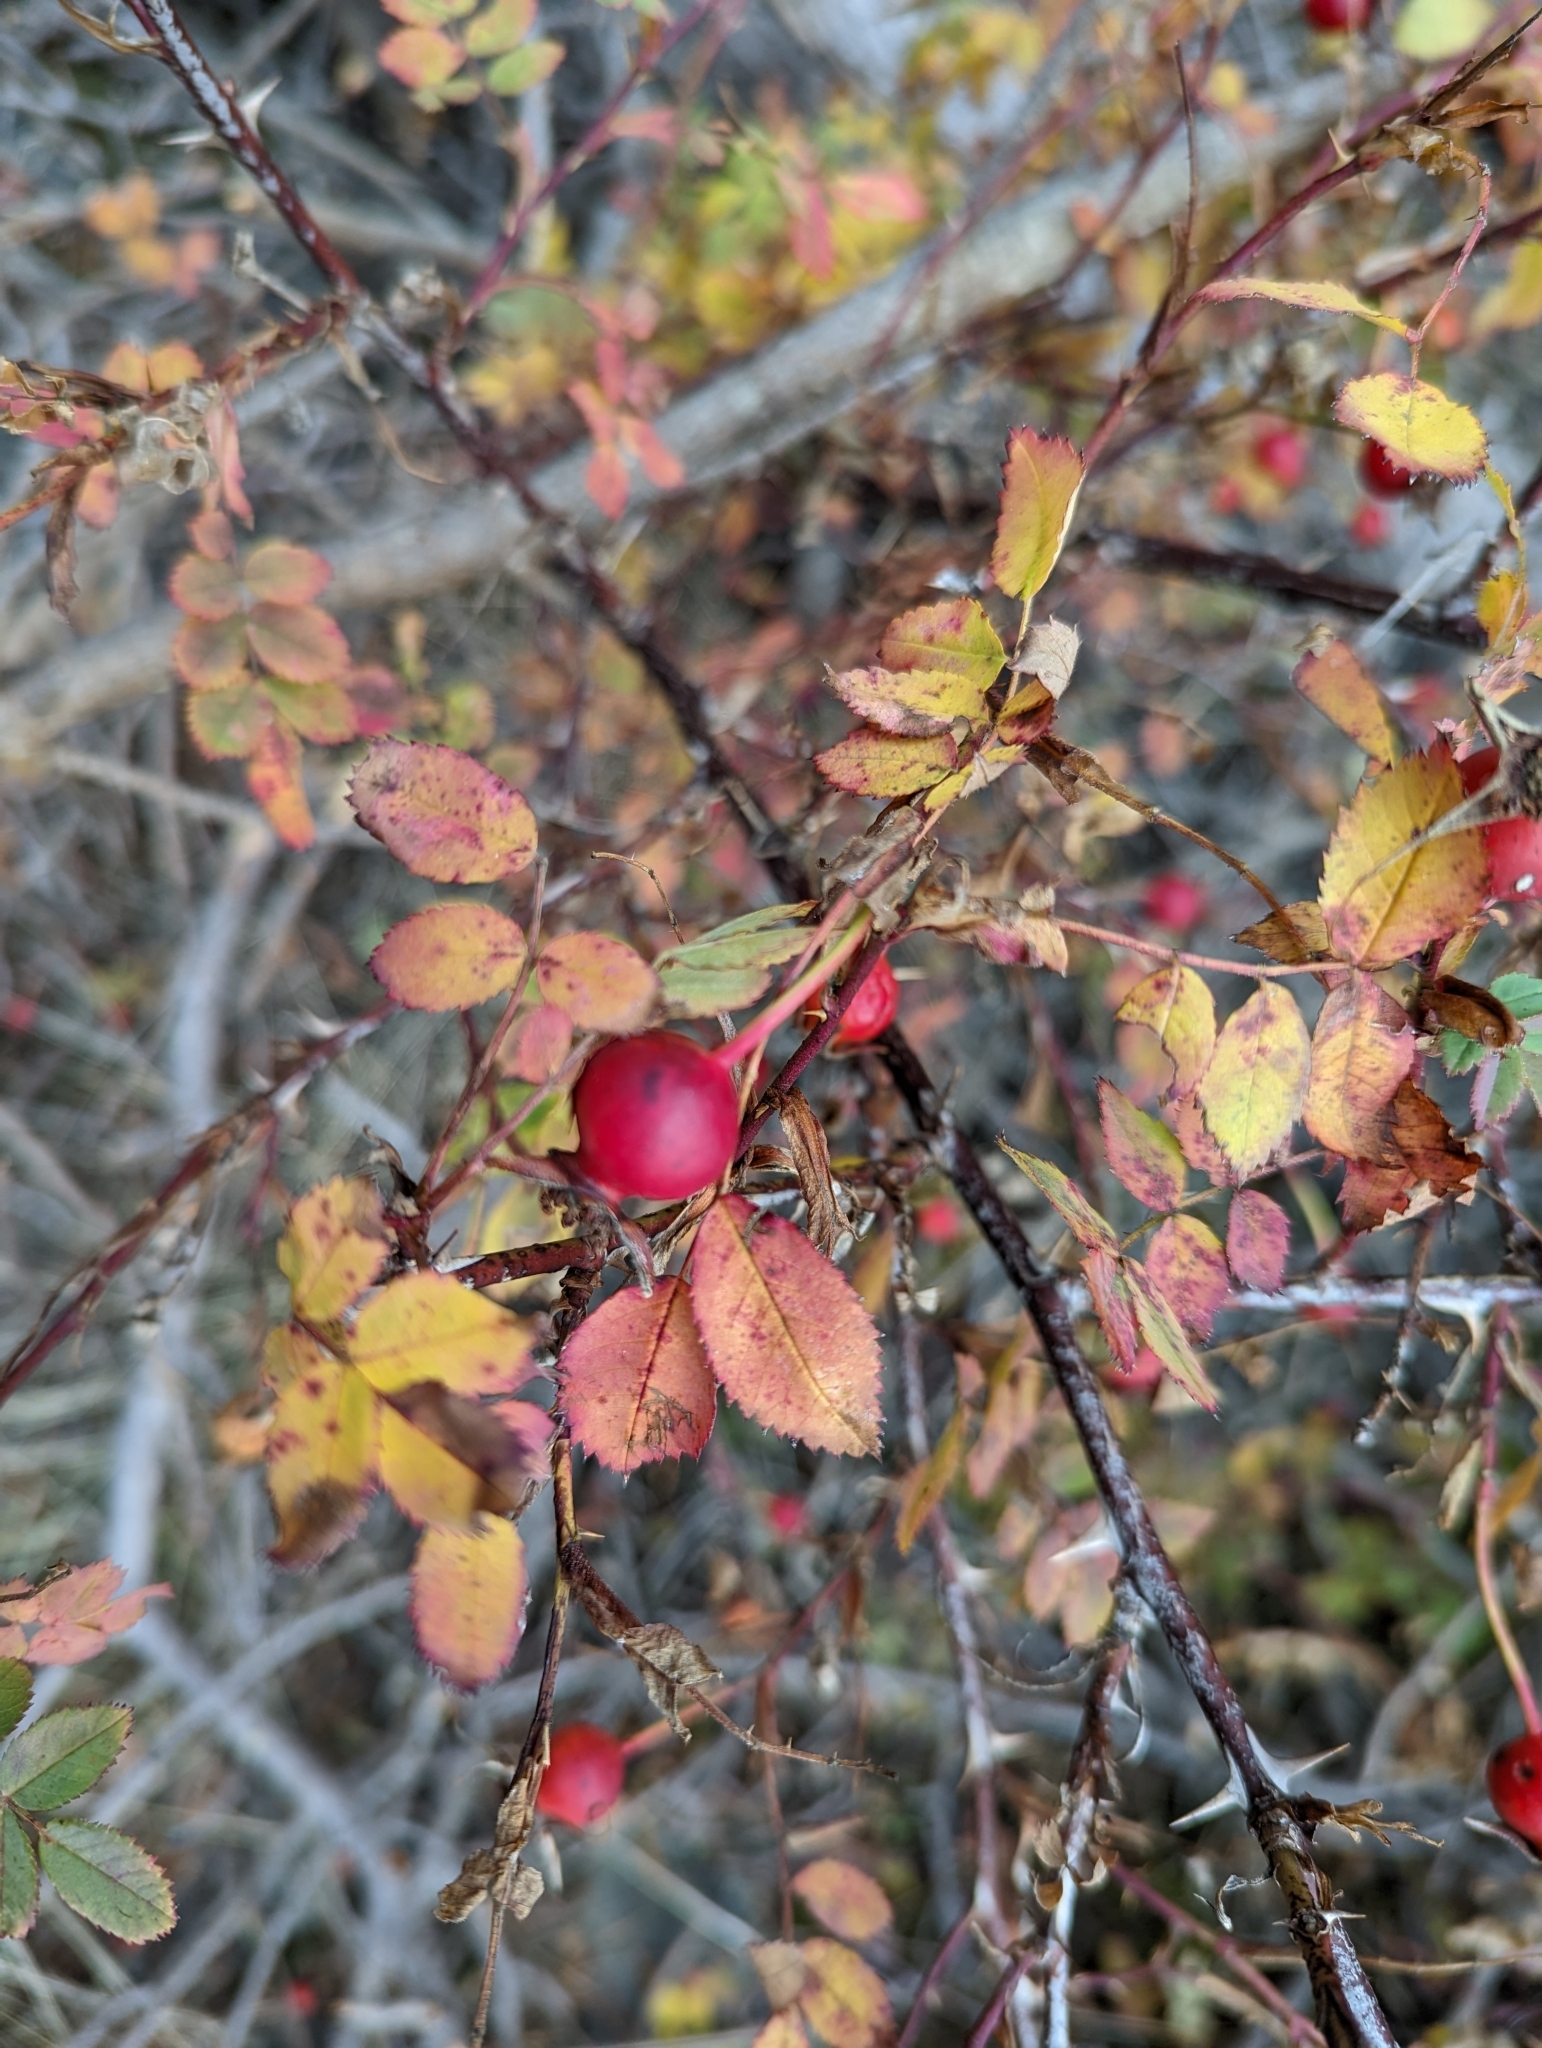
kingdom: Plantae
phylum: Tracheophyta
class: Magnoliopsida
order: Rosales
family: Rosaceae
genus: Rosa
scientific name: Rosa nutkana
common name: Nootka rose
